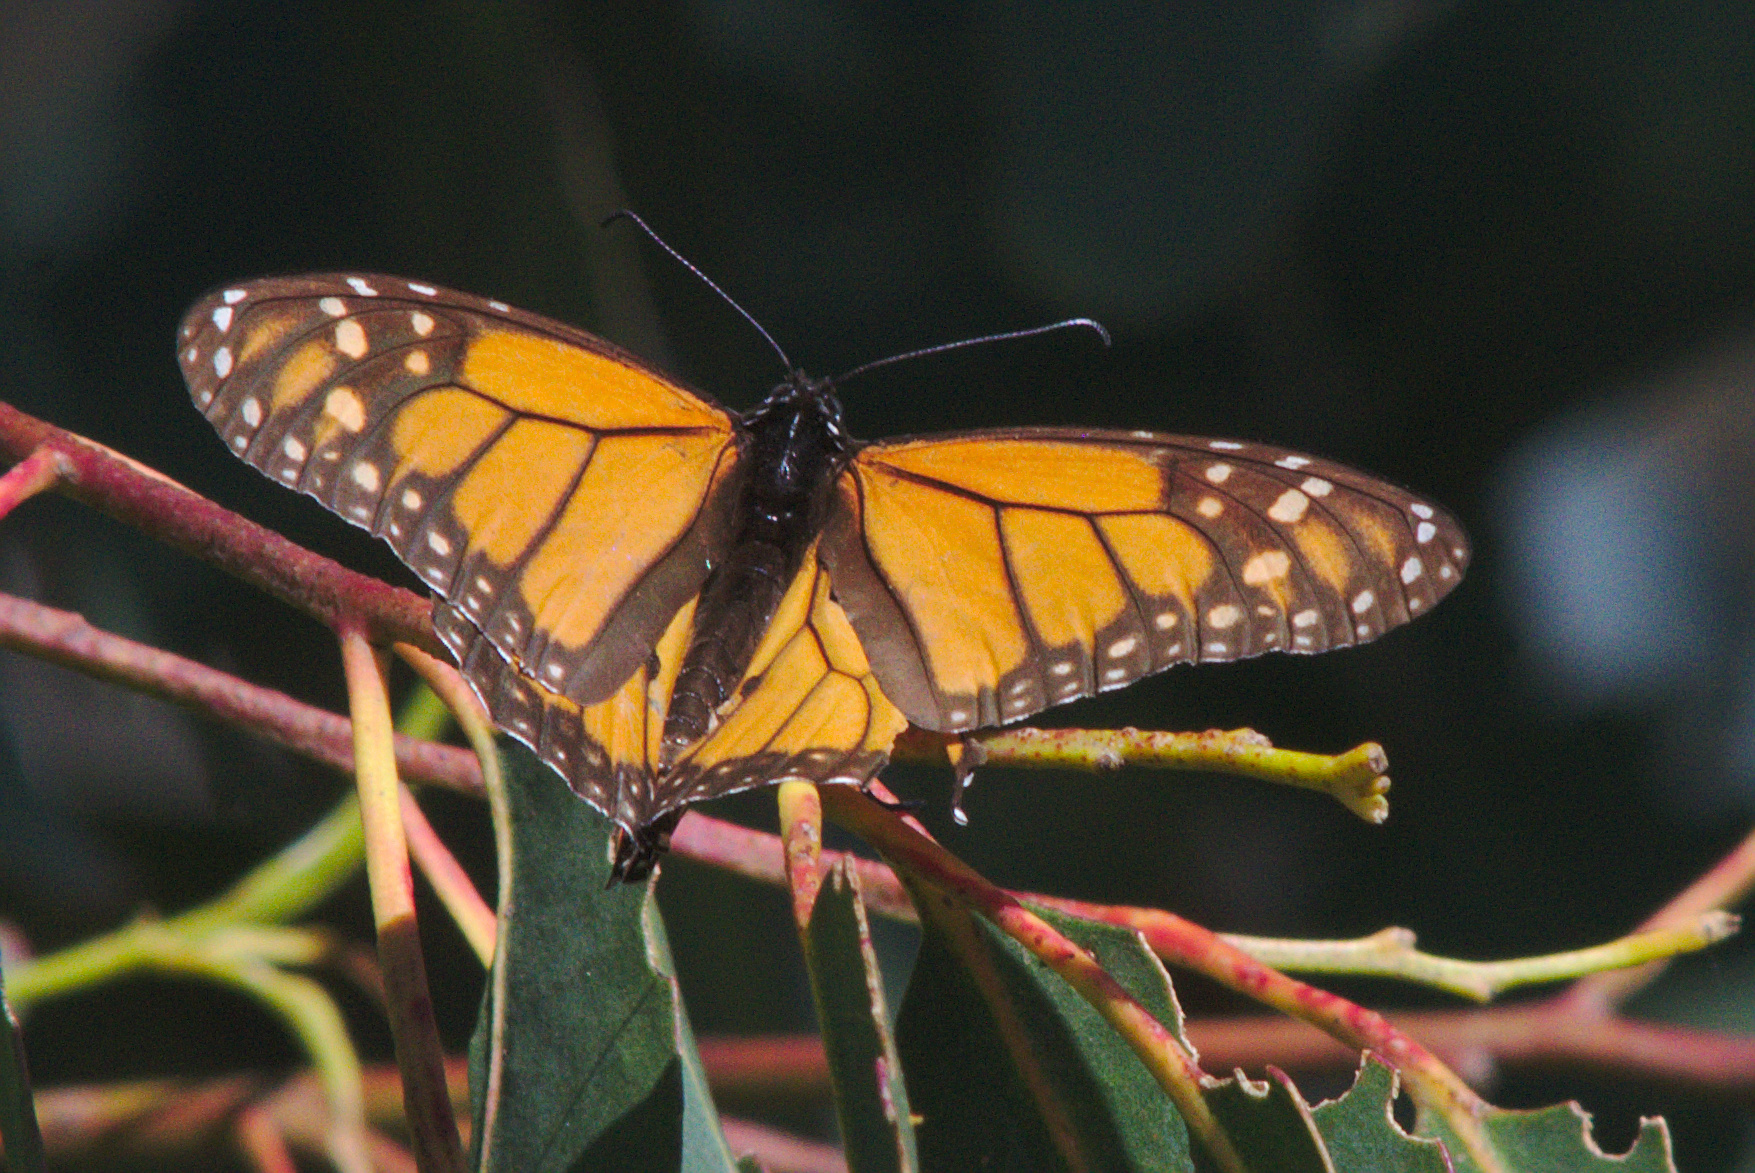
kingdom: Animalia
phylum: Arthropoda
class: Insecta
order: Lepidoptera
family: Nymphalidae
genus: Danaus
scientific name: Danaus plexippus
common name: Monarch
